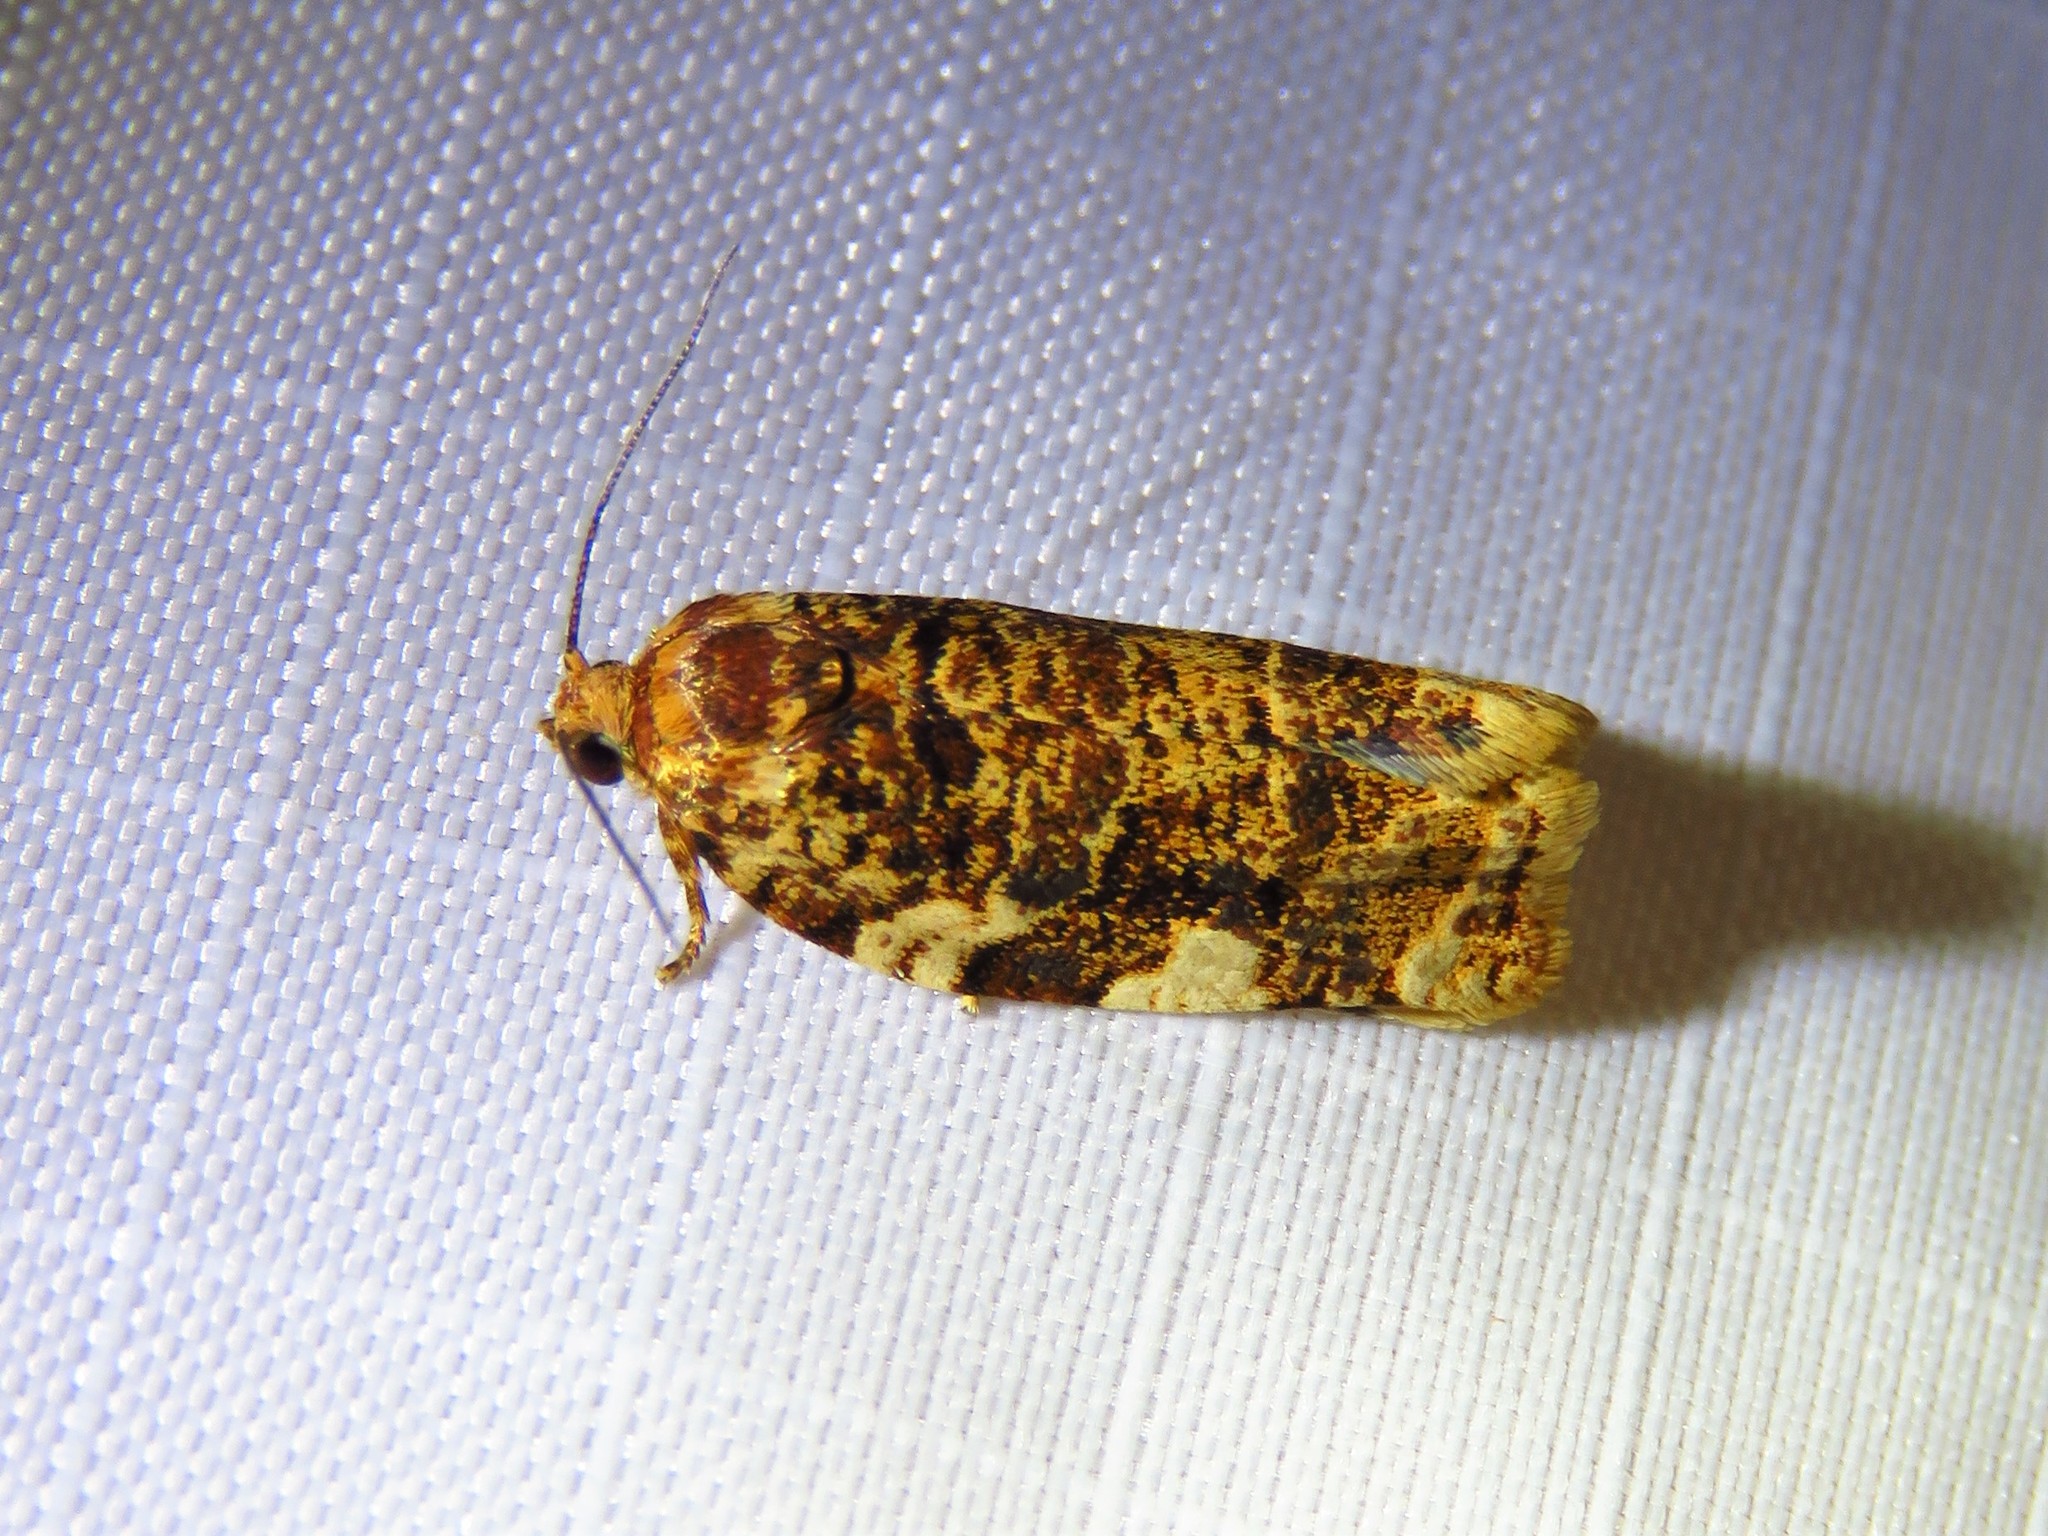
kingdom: Animalia
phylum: Arthropoda
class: Insecta
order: Lepidoptera
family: Tortricidae
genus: Archips
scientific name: Archips argyrospila
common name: Fruit-tree leafroller moth
